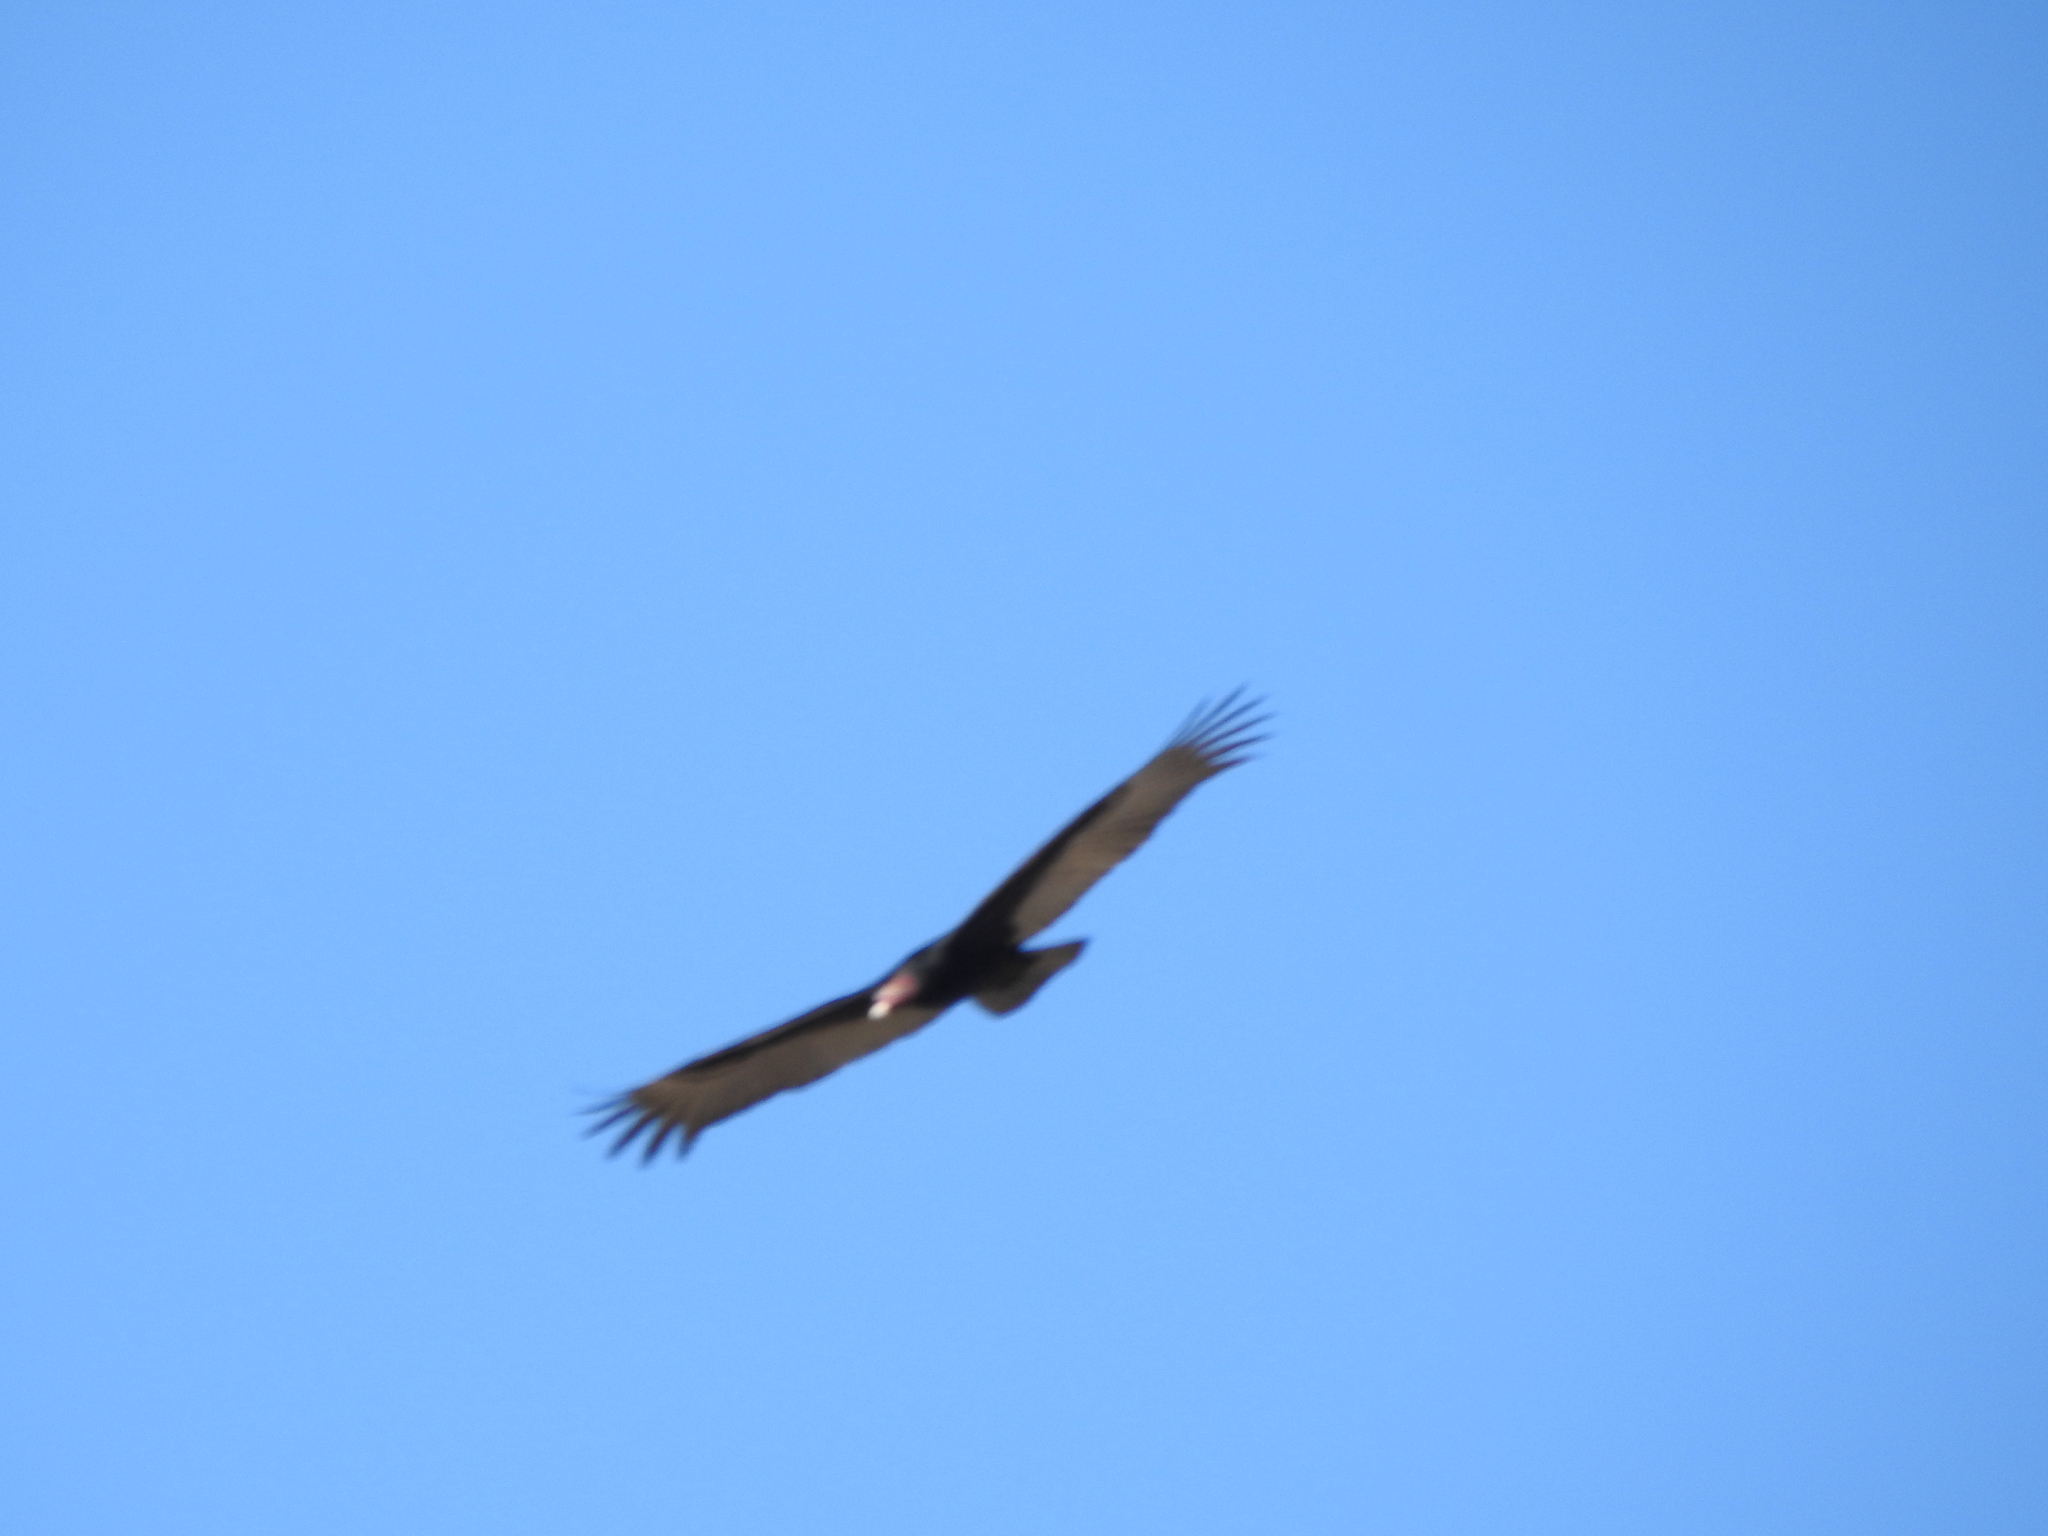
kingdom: Animalia
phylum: Chordata
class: Aves
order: Accipitriformes
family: Cathartidae
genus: Cathartes
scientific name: Cathartes aura
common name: Turkey vulture
